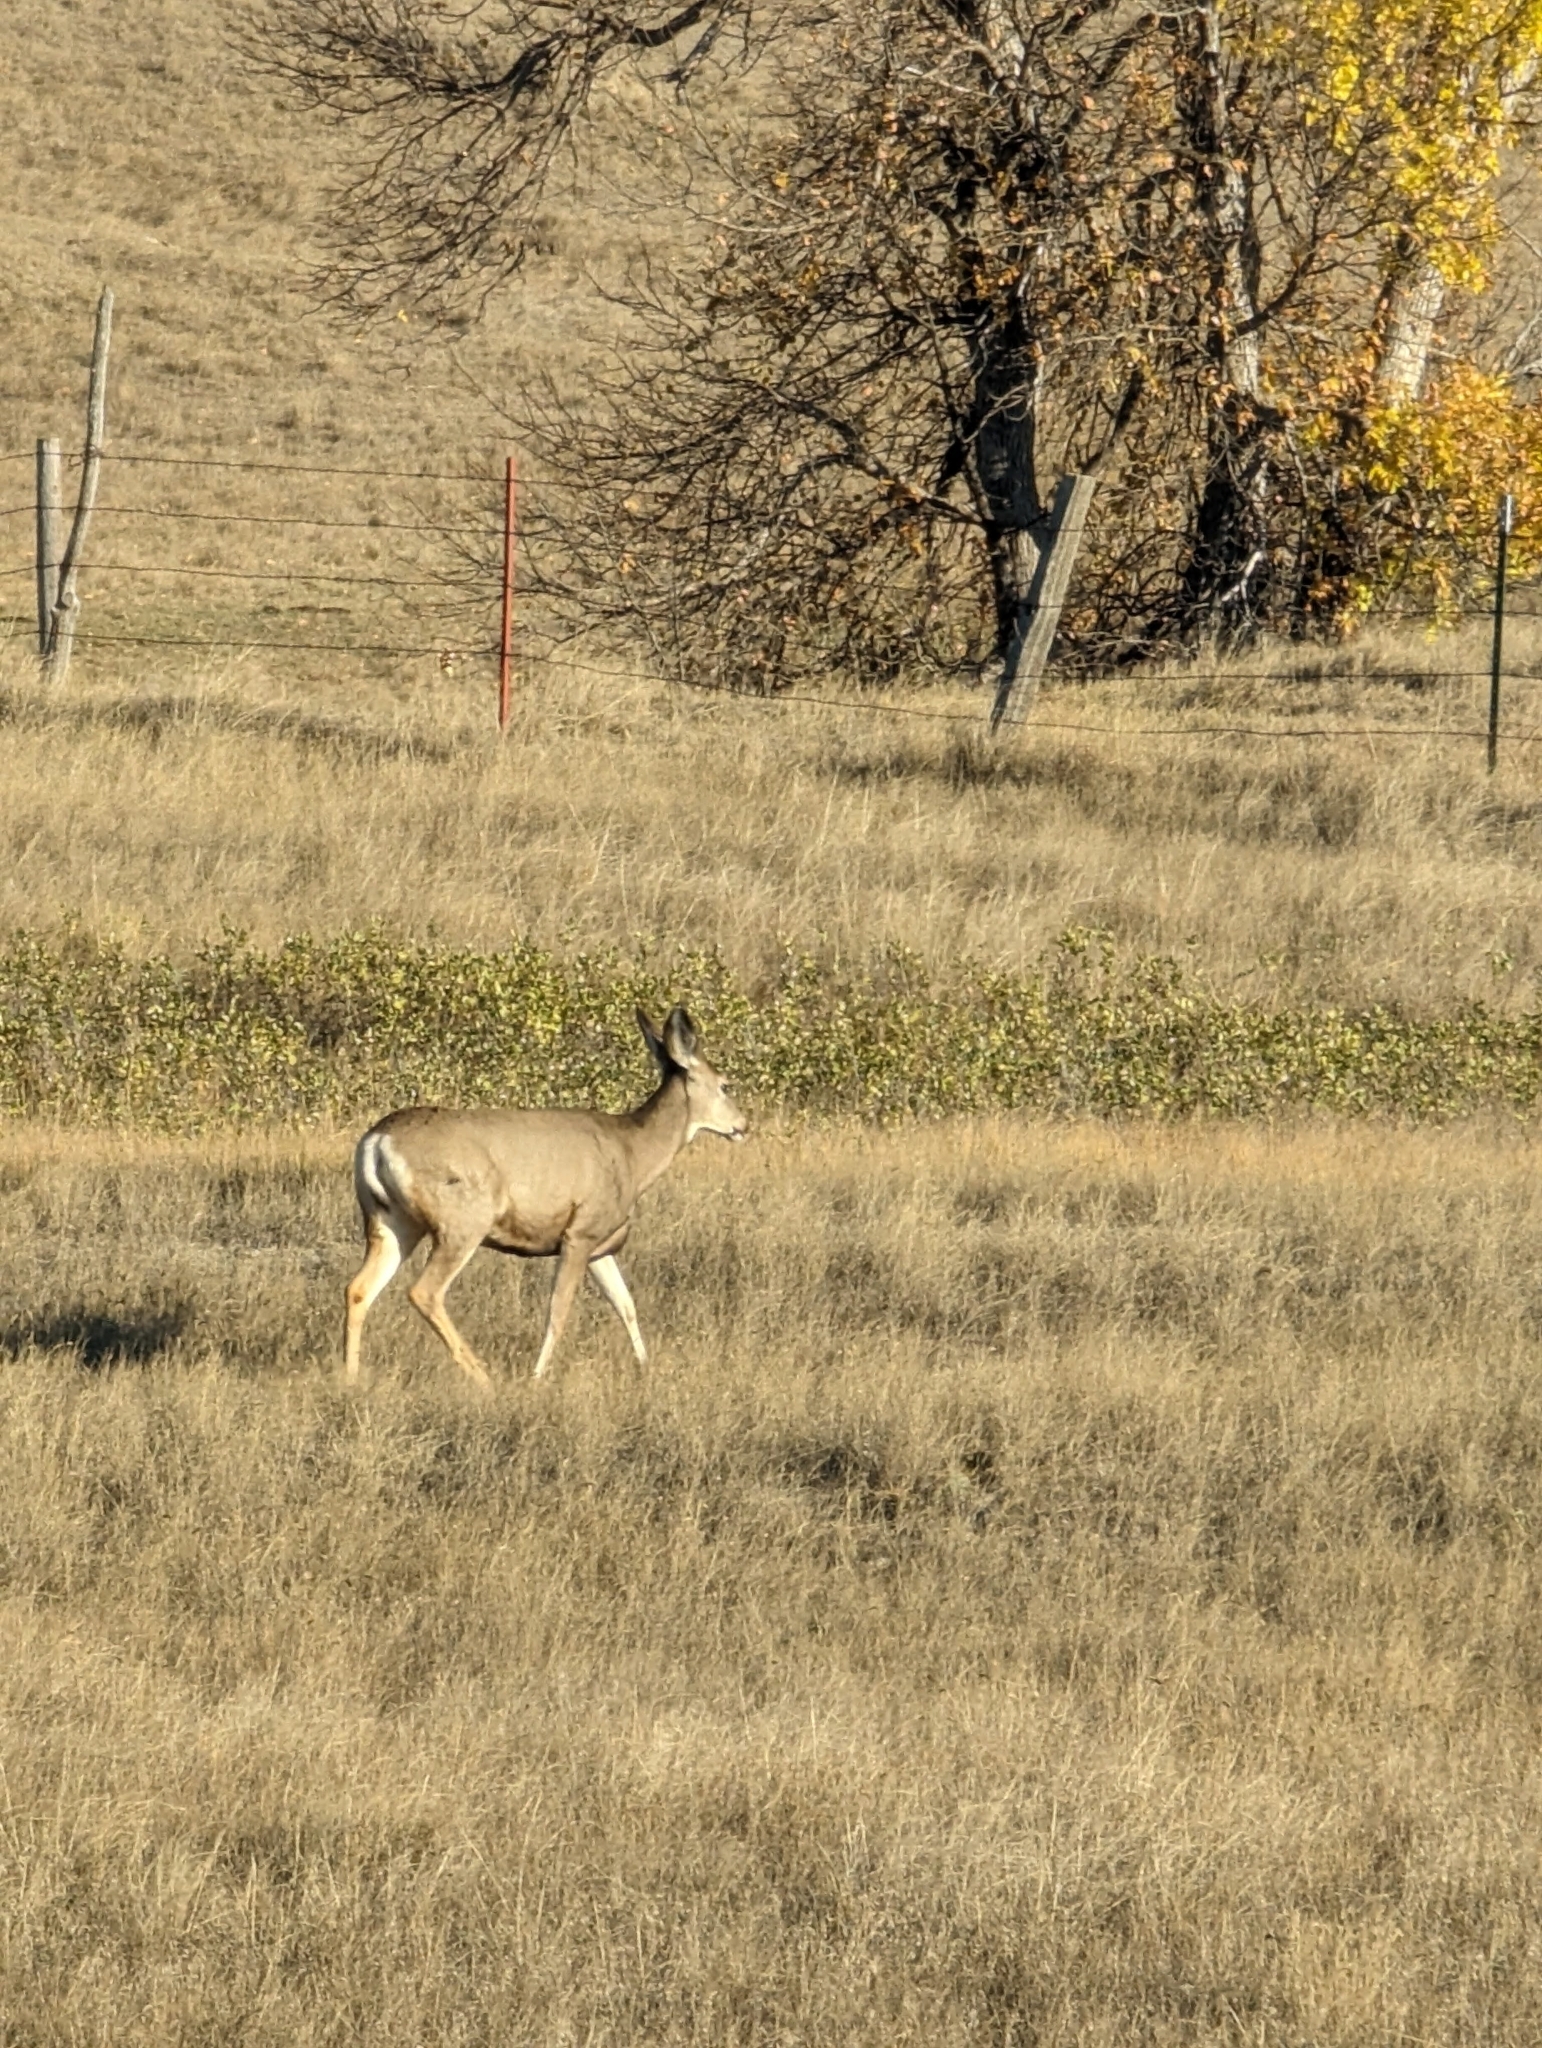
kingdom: Animalia
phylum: Chordata
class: Mammalia
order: Artiodactyla
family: Cervidae
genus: Odocoileus
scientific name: Odocoileus hemionus
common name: Mule deer
